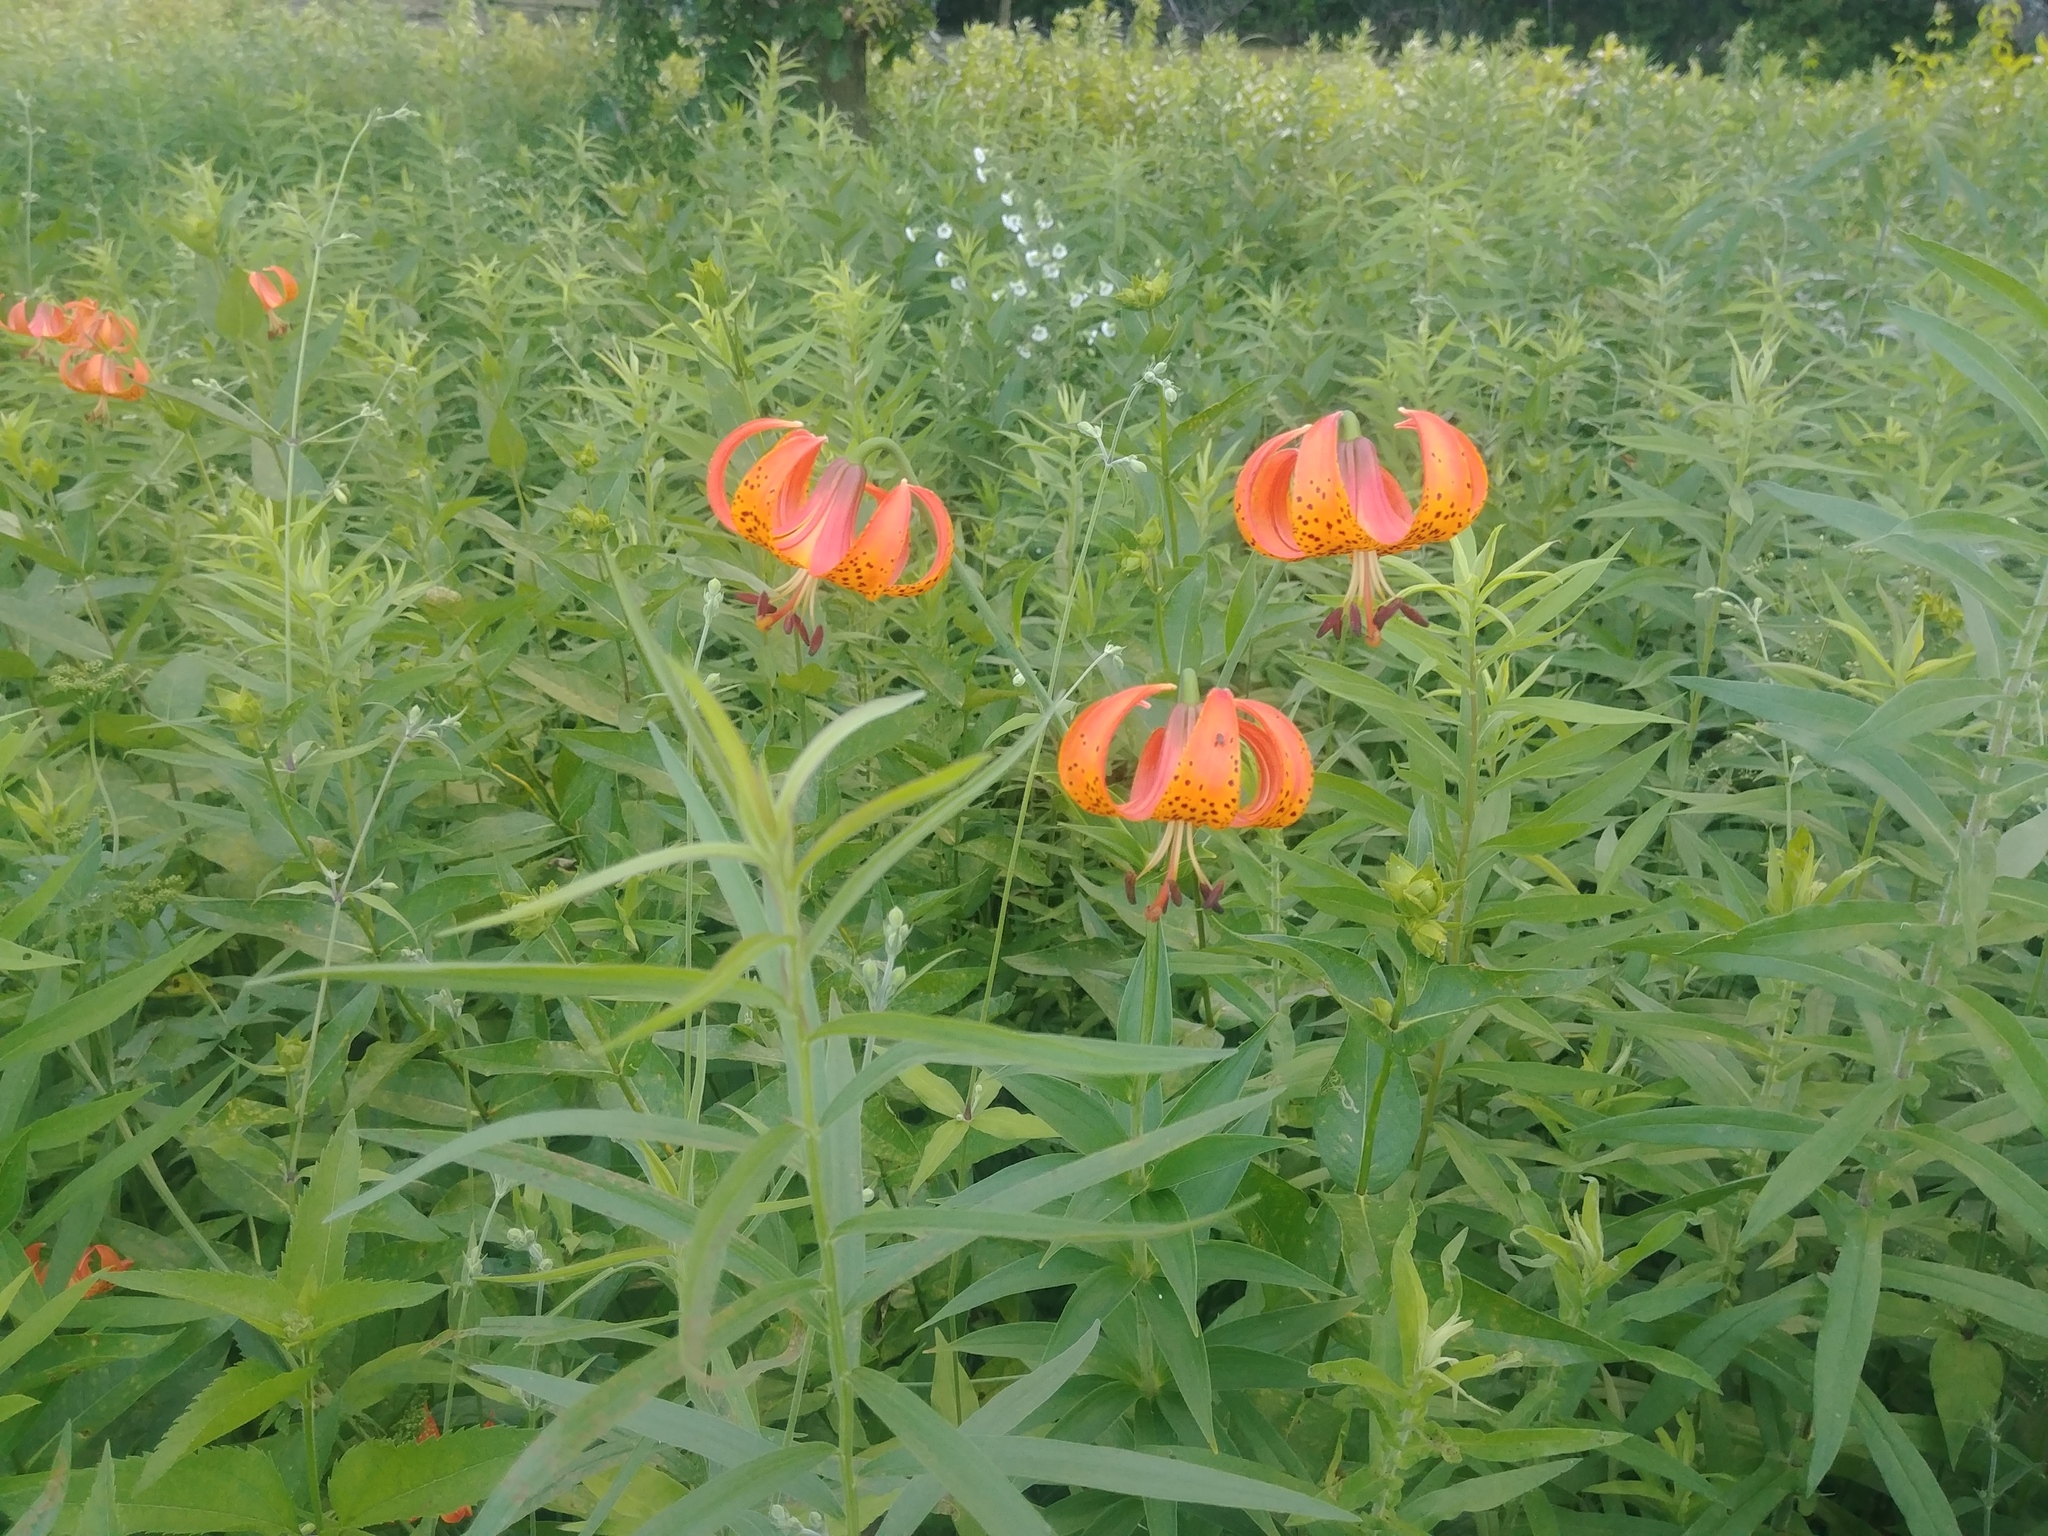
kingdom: Plantae
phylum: Tracheophyta
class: Liliopsida
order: Liliales
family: Liliaceae
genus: Lilium
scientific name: Lilium michiganense
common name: Michigan lily
